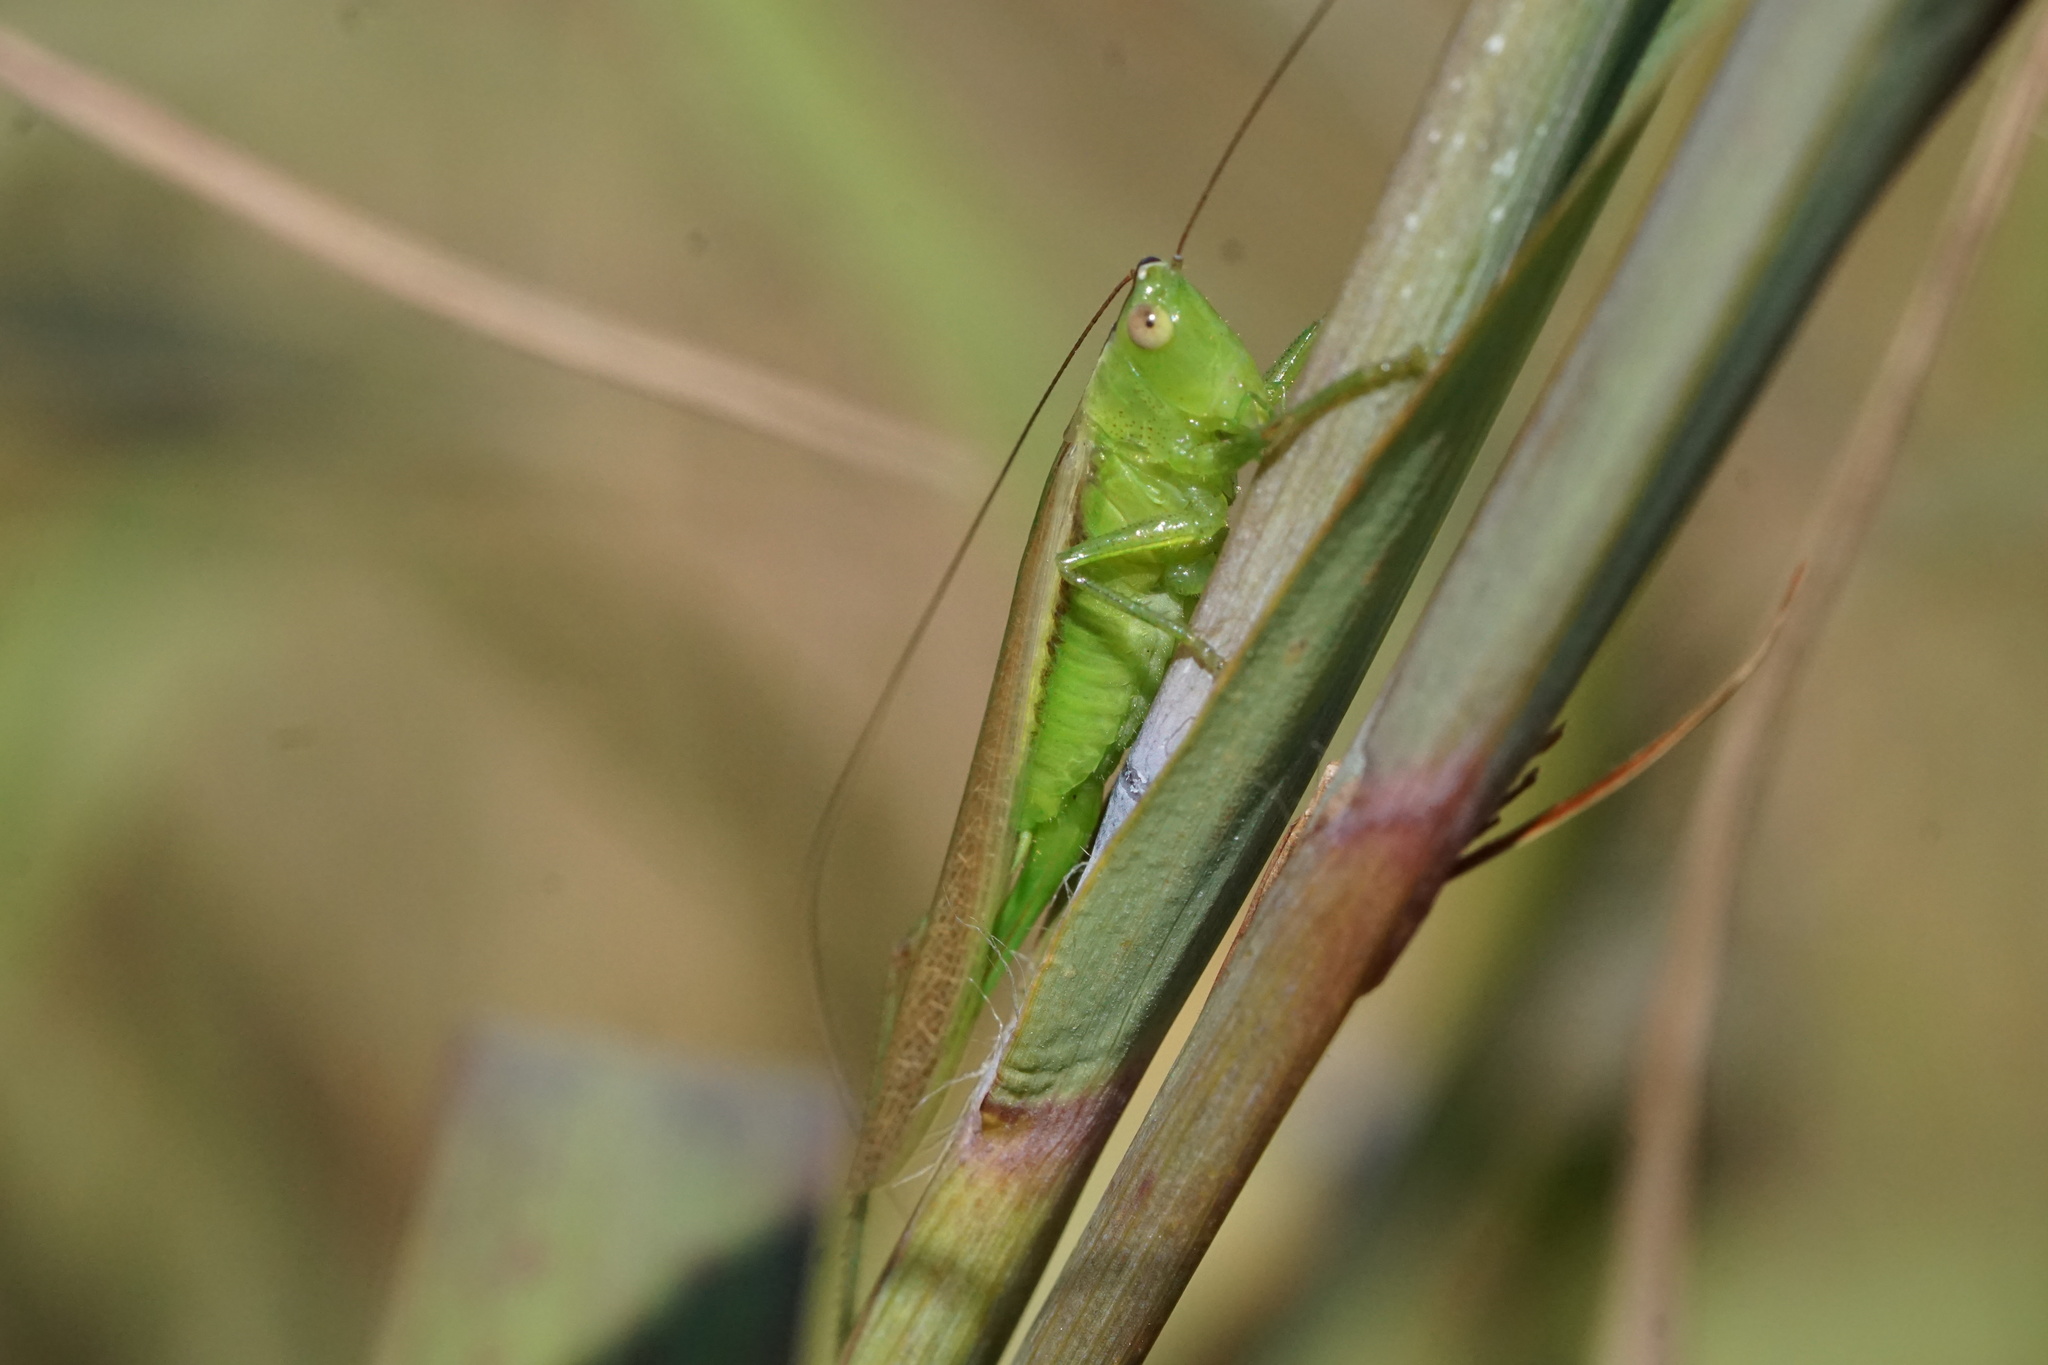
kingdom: Animalia
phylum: Arthropoda
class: Insecta
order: Orthoptera
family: Tettigoniidae
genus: Conocephalus
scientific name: Conocephalus fasciatus
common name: Slender meadow katydid
